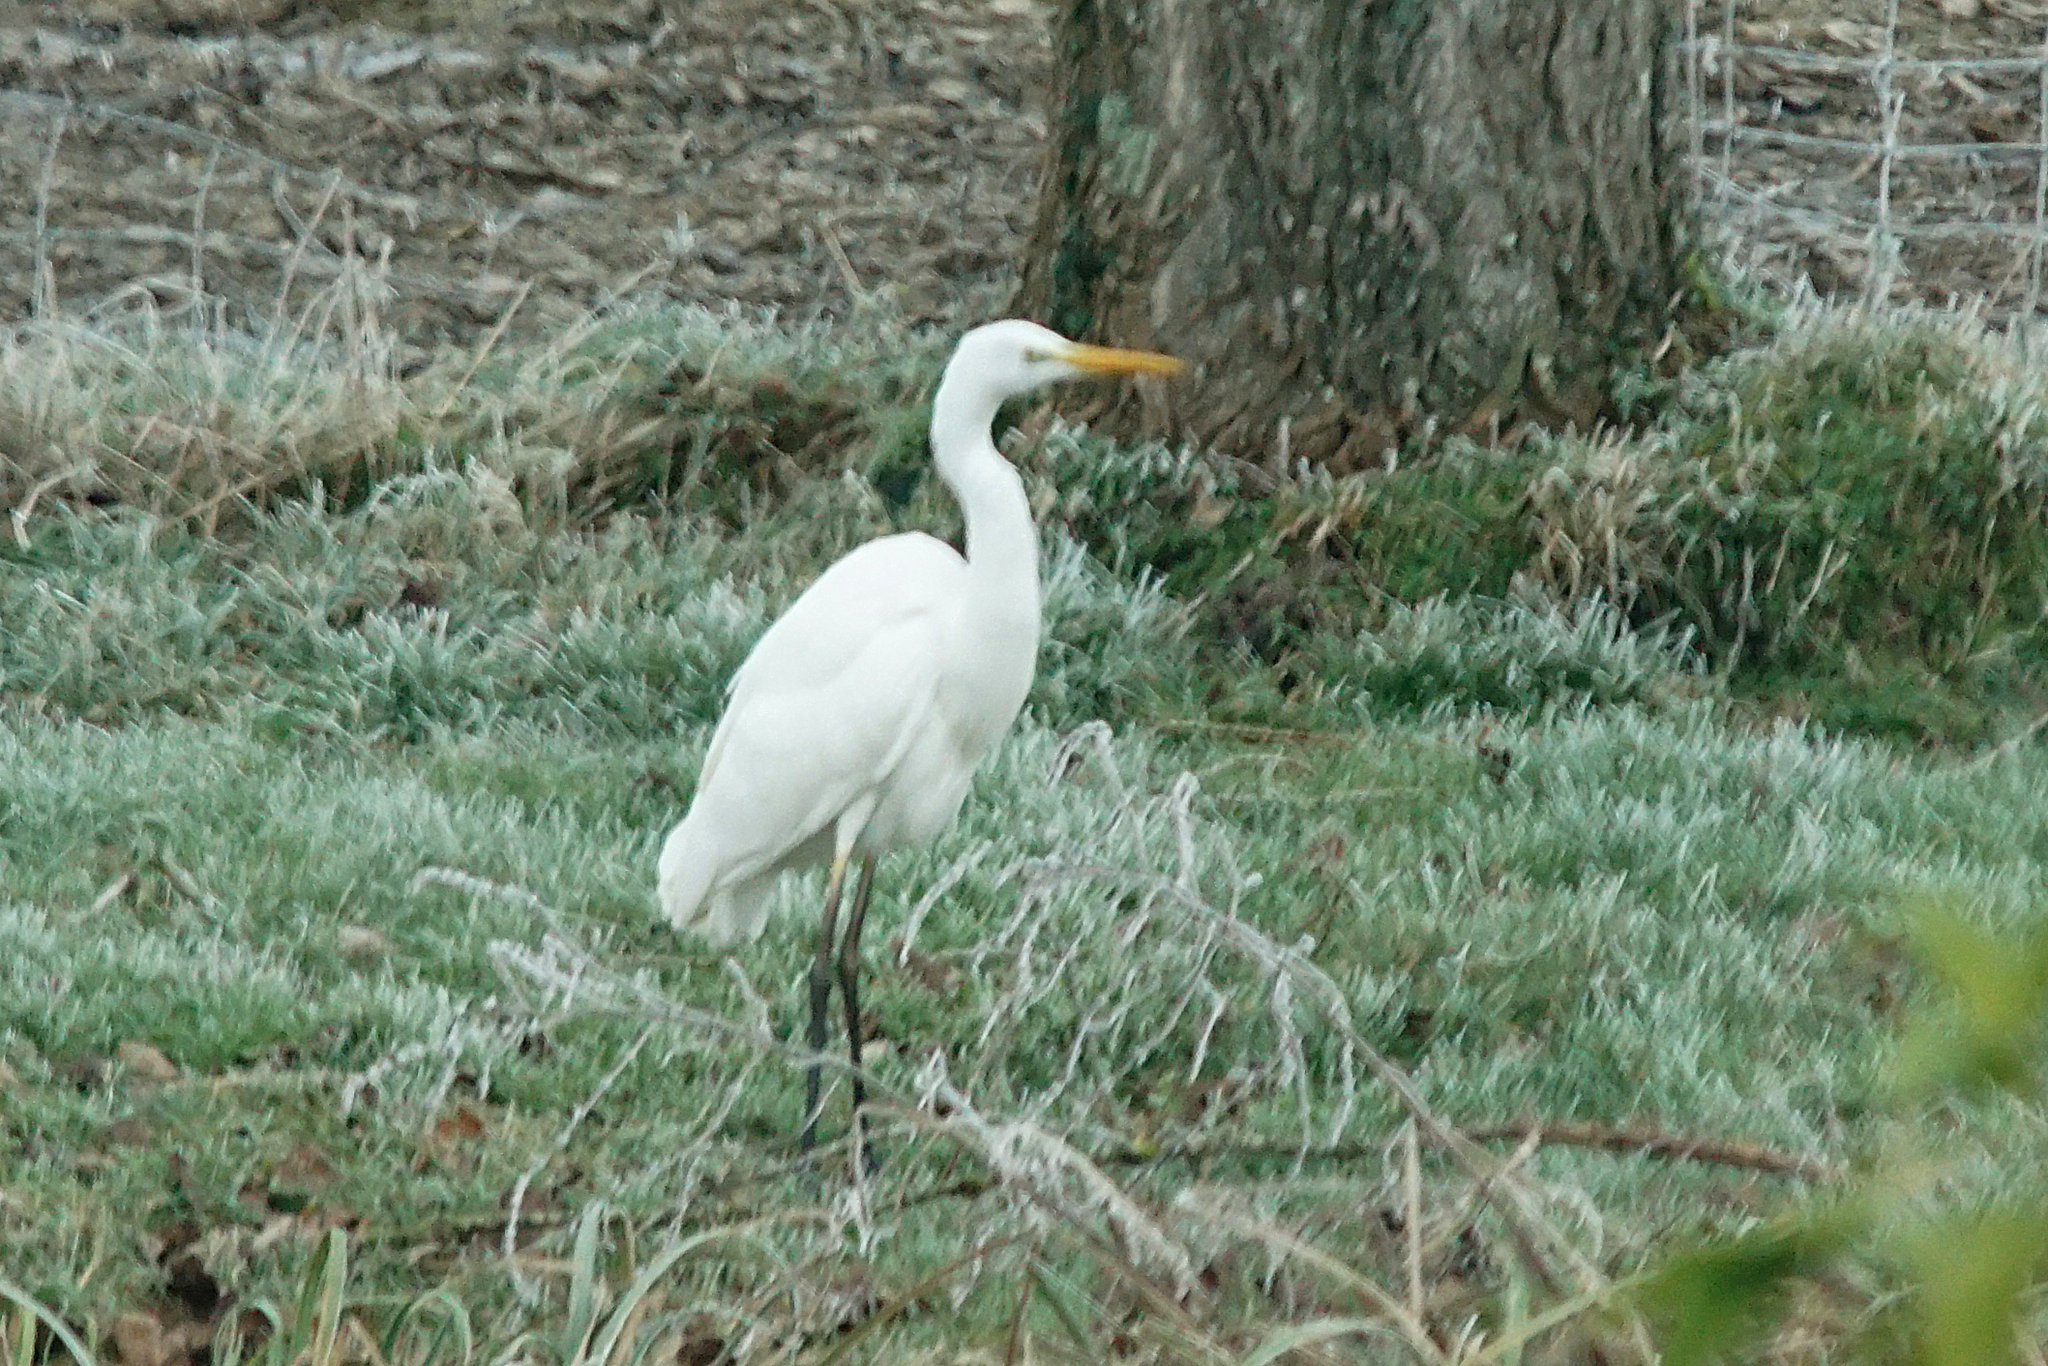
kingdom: Animalia
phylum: Chordata
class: Aves
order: Pelecaniformes
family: Ardeidae
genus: Ardea
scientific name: Ardea alba
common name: Great egret
